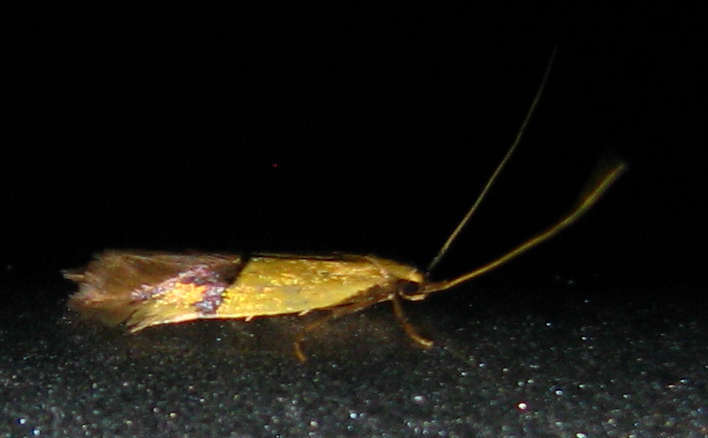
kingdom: Animalia
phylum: Arthropoda
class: Insecta
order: Lepidoptera
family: Tineidae
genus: Opogona
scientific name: Opogona stereodyta
